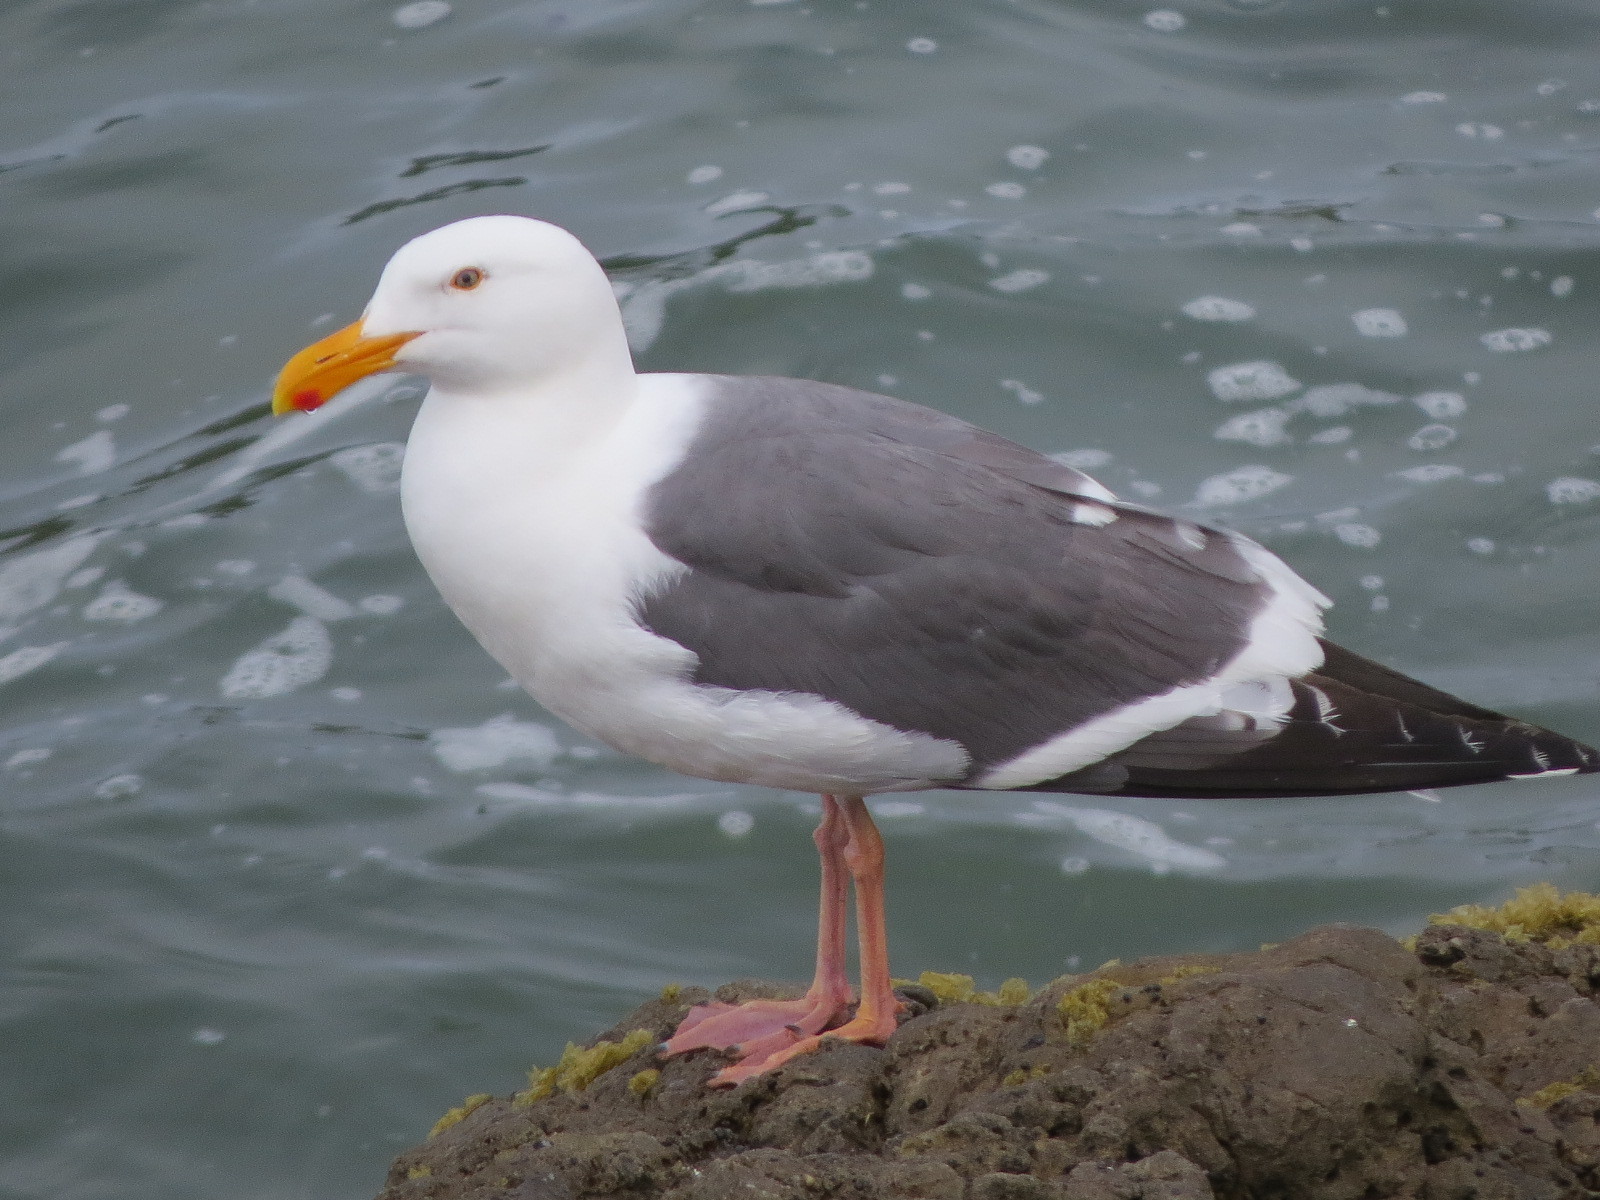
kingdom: Animalia
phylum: Chordata
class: Aves
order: Charadriiformes
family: Laridae
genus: Larus
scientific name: Larus occidentalis
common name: Western gull
